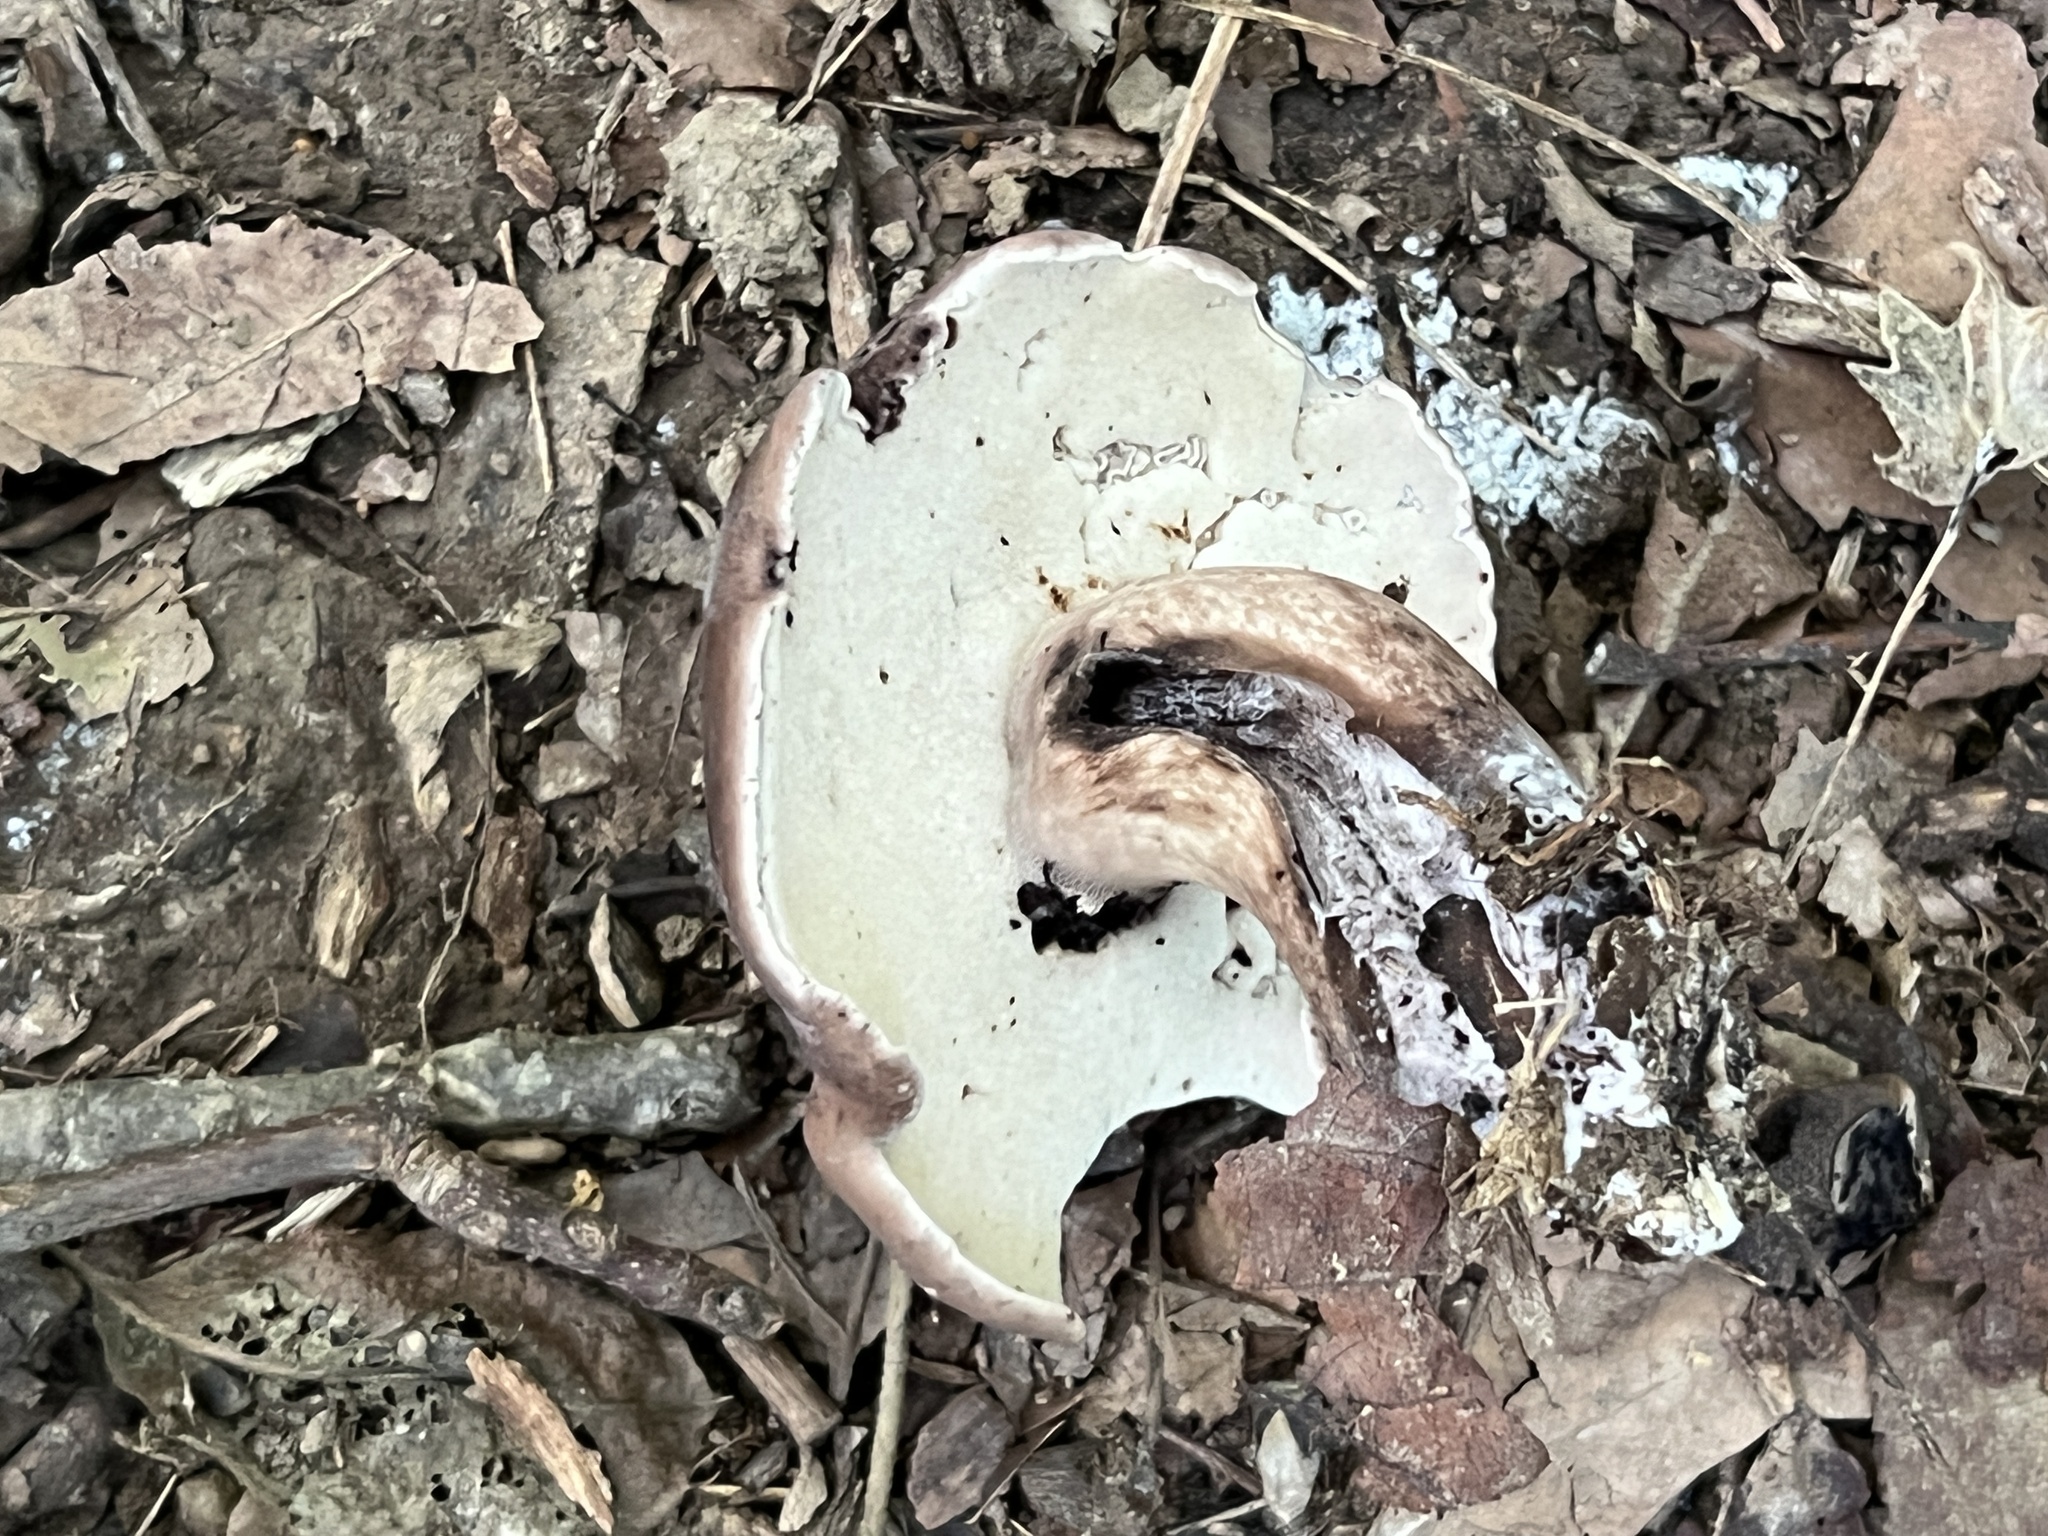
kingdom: Fungi
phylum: Basidiomycota
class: Agaricomycetes
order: Boletales
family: Boletaceae
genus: Tylopilus
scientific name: Tylopilus alboater
